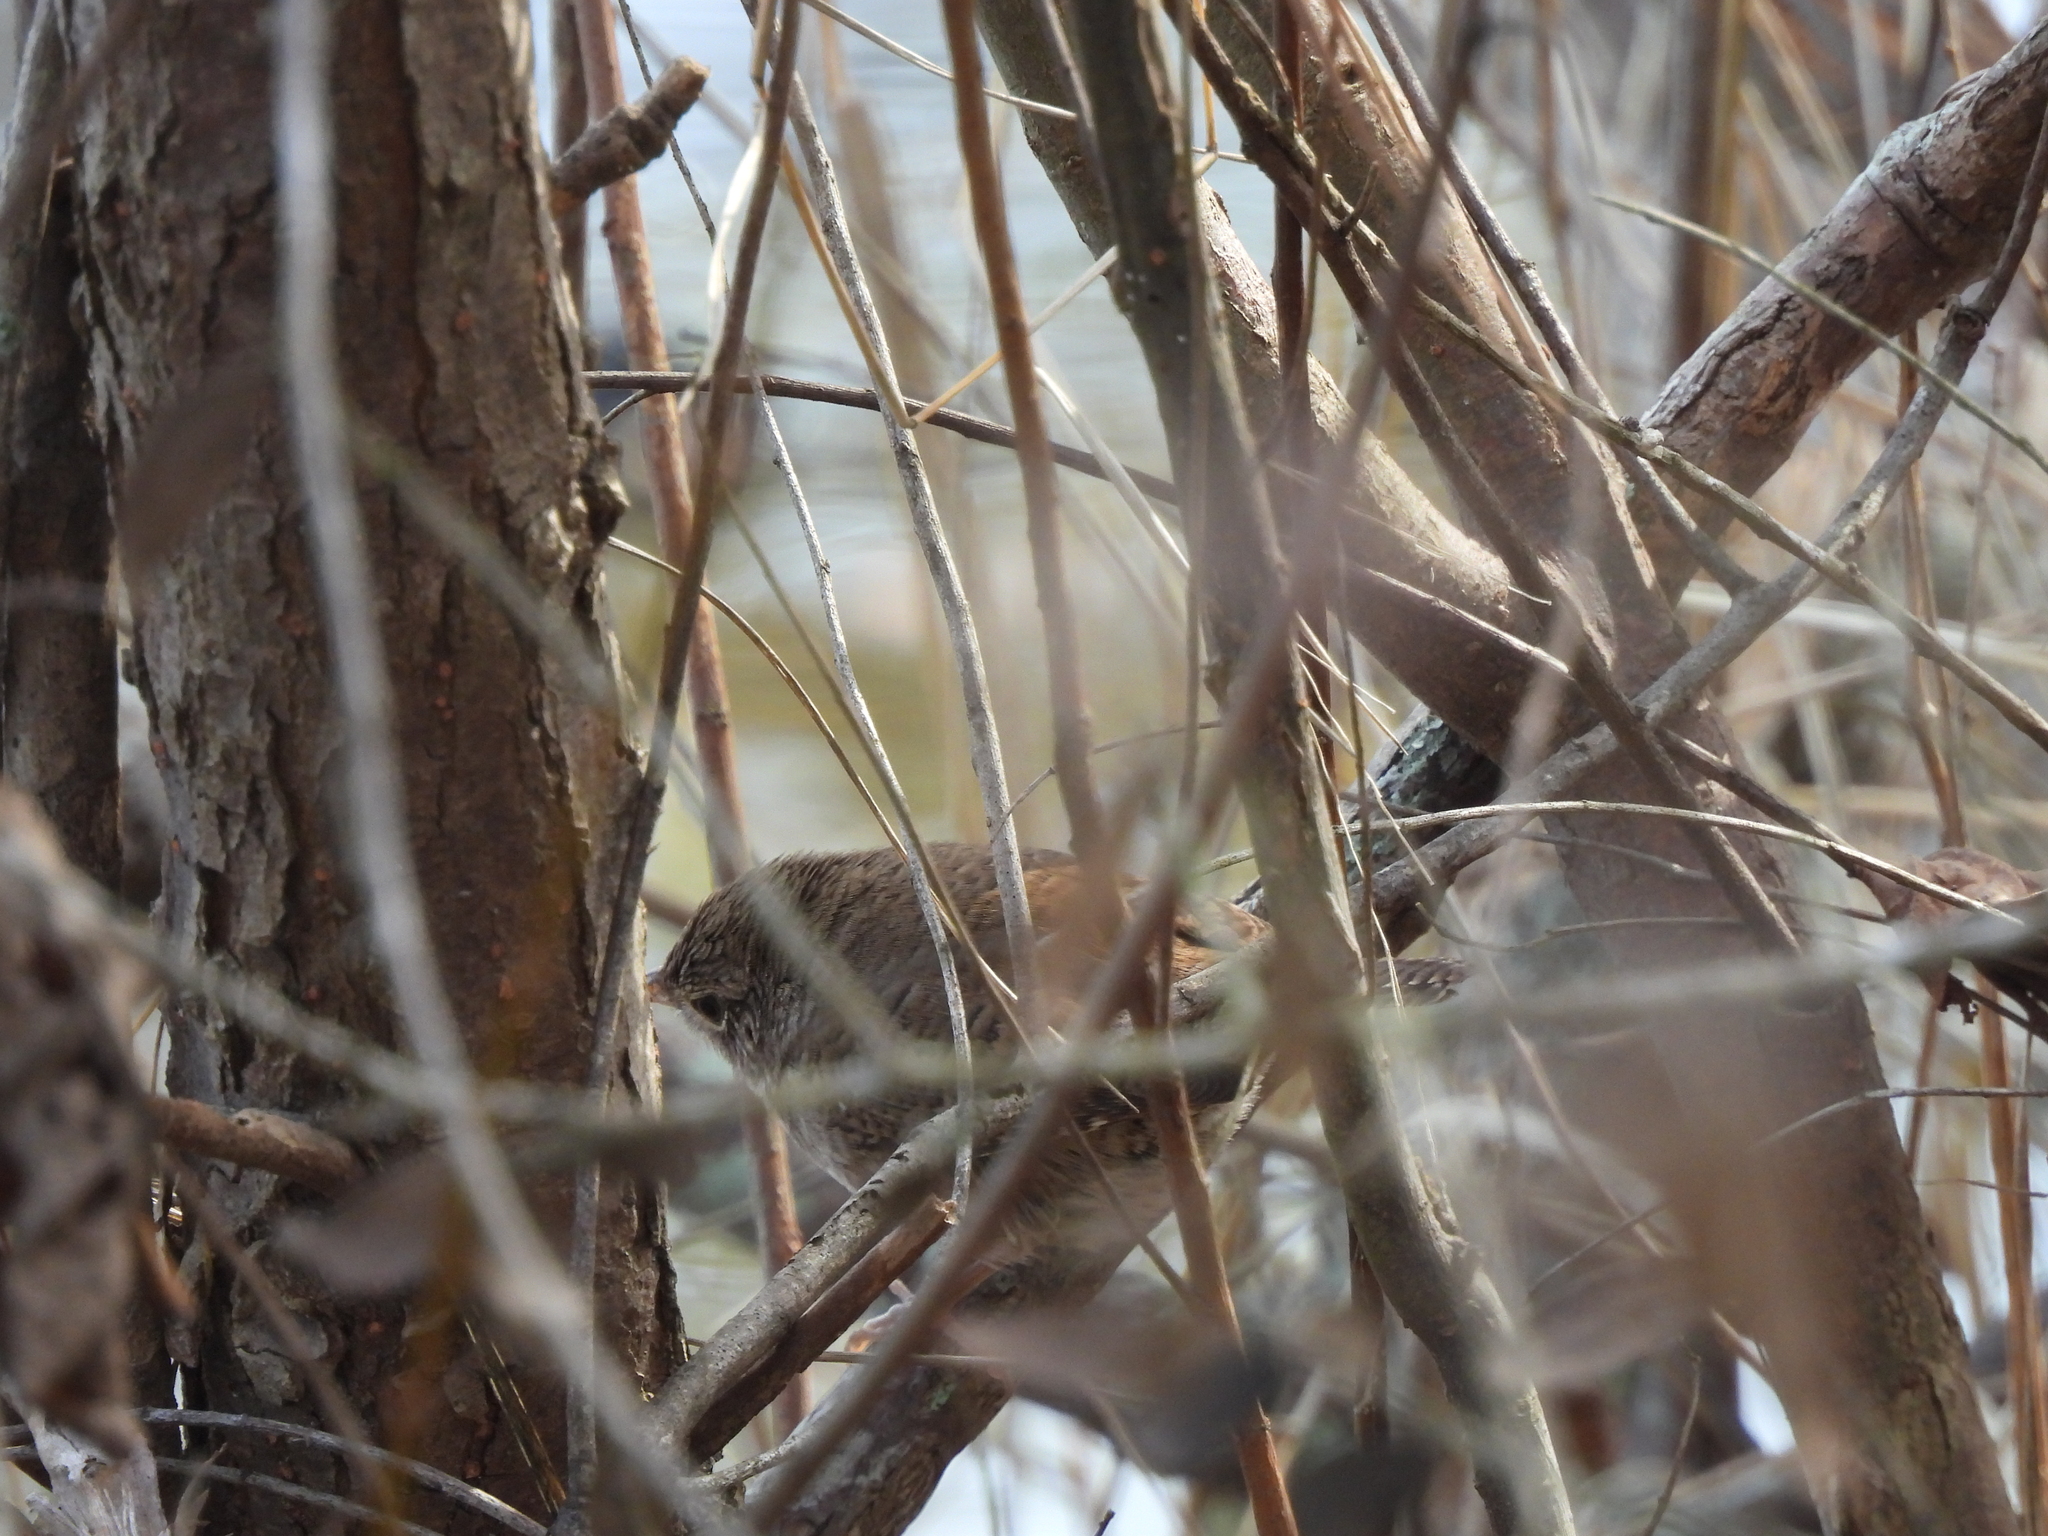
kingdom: Animalia
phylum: Chordata
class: Aves
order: Passeriformes
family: Troglodytidae
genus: Troglodytes
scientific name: Troglodytes aedon
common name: House wren
